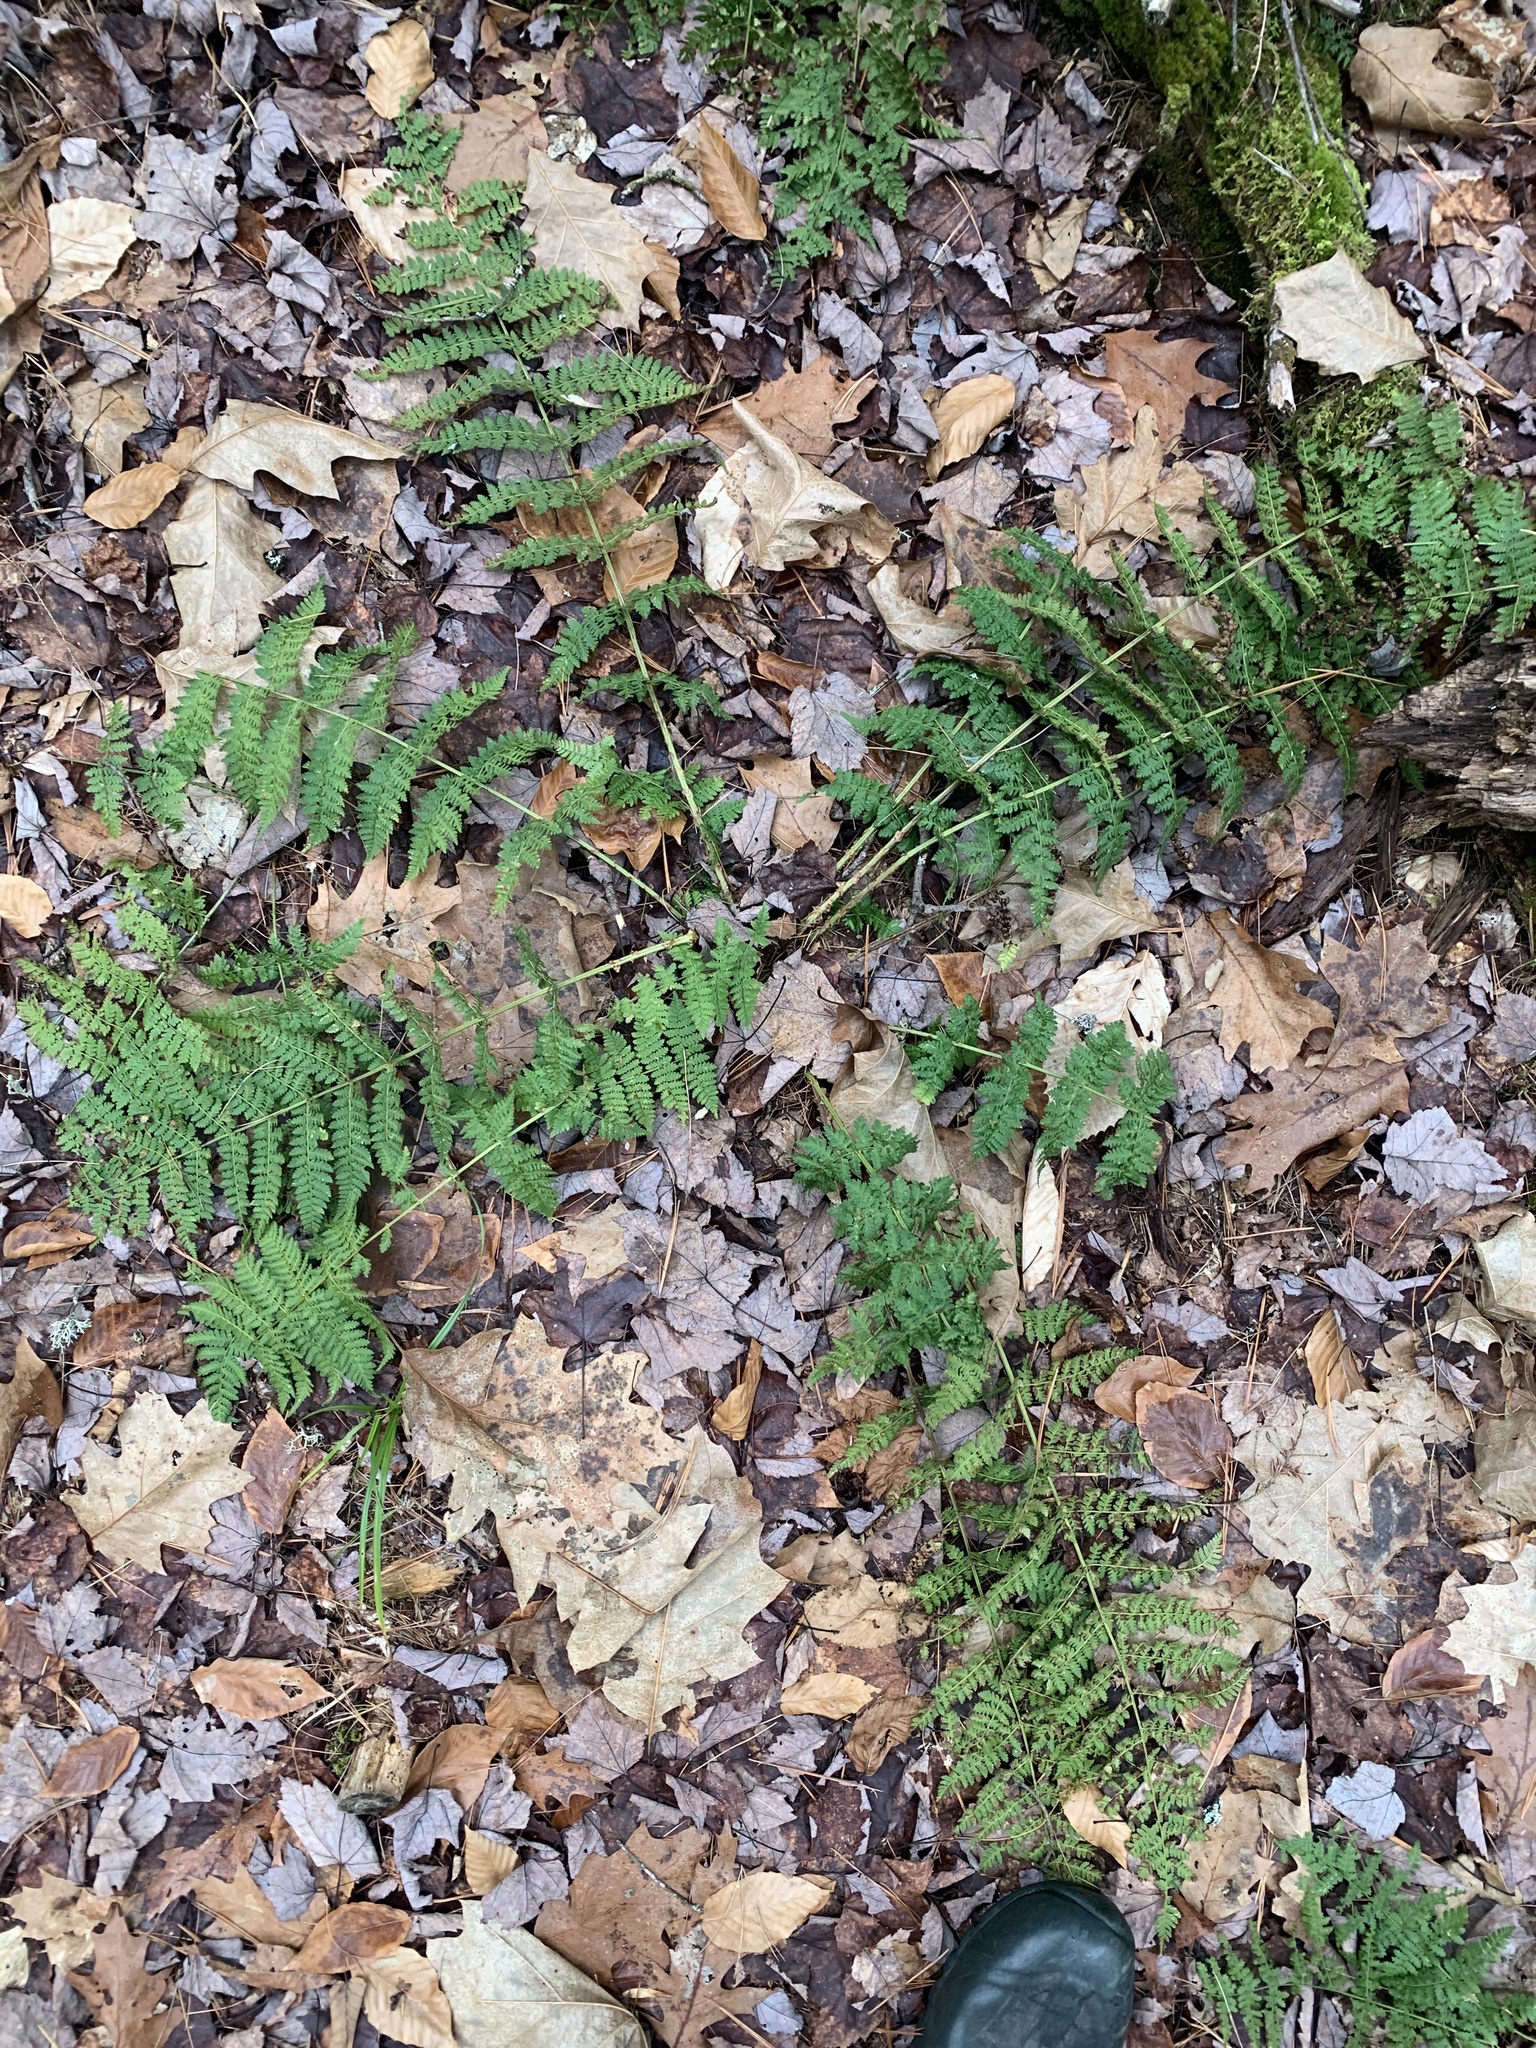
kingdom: Plantae
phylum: Tracheophyta
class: Polypodiopsida
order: Polypodiales
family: Dryopteridaceae
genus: Dryopteris
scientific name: Dryopteris intermedia
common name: Evergreen wood fern
